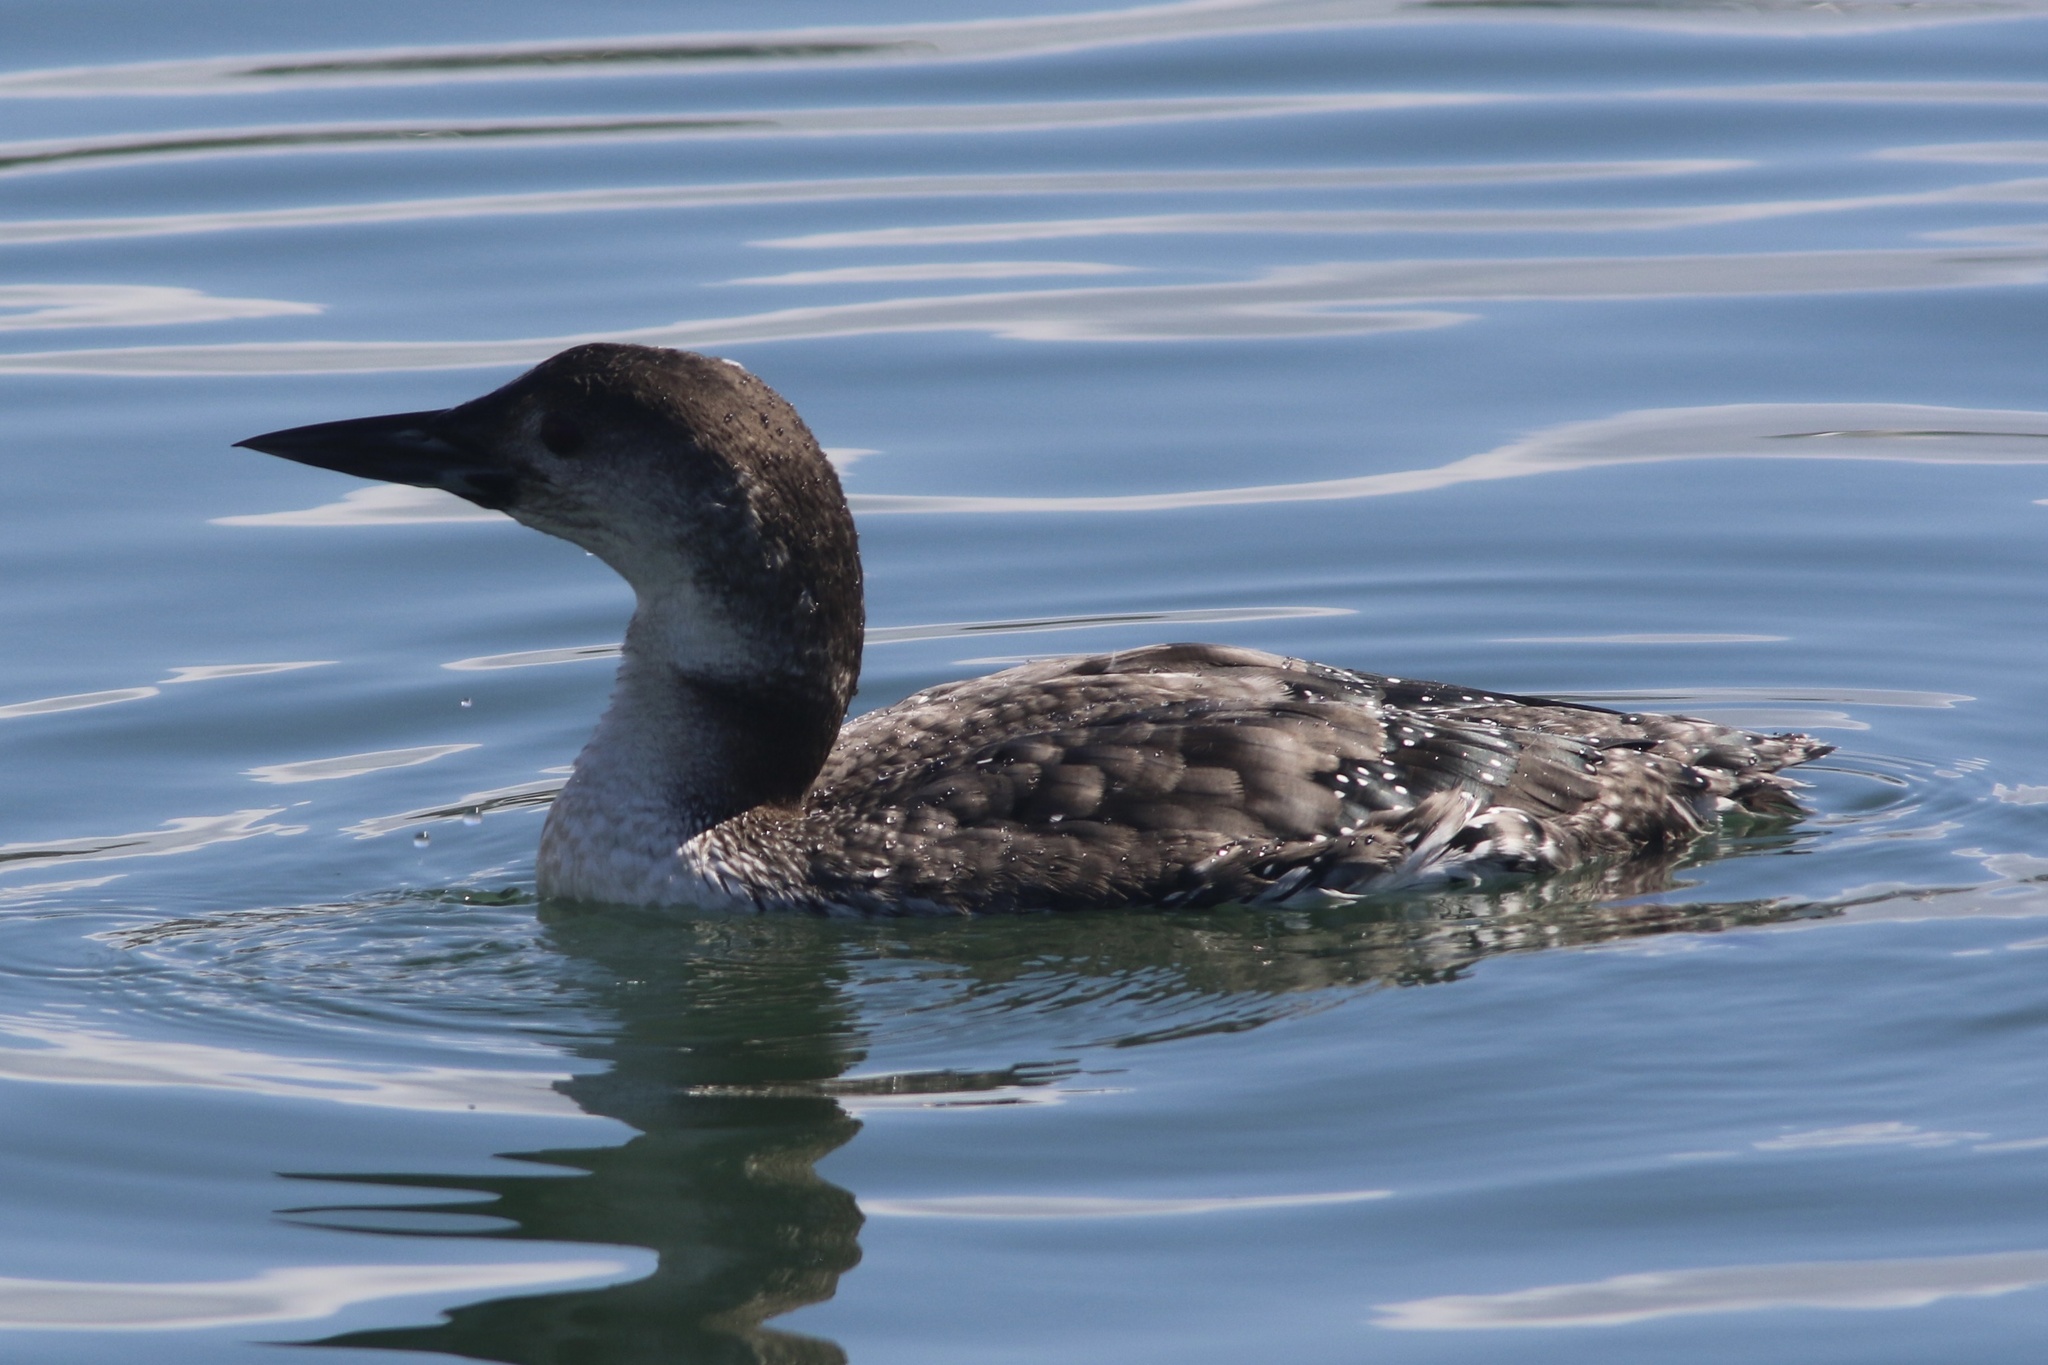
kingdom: Animalia
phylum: Chordata
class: Aves
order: Gaviiformes
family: Gaviidae
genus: Gavia
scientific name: Gavia immer
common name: Common loon
